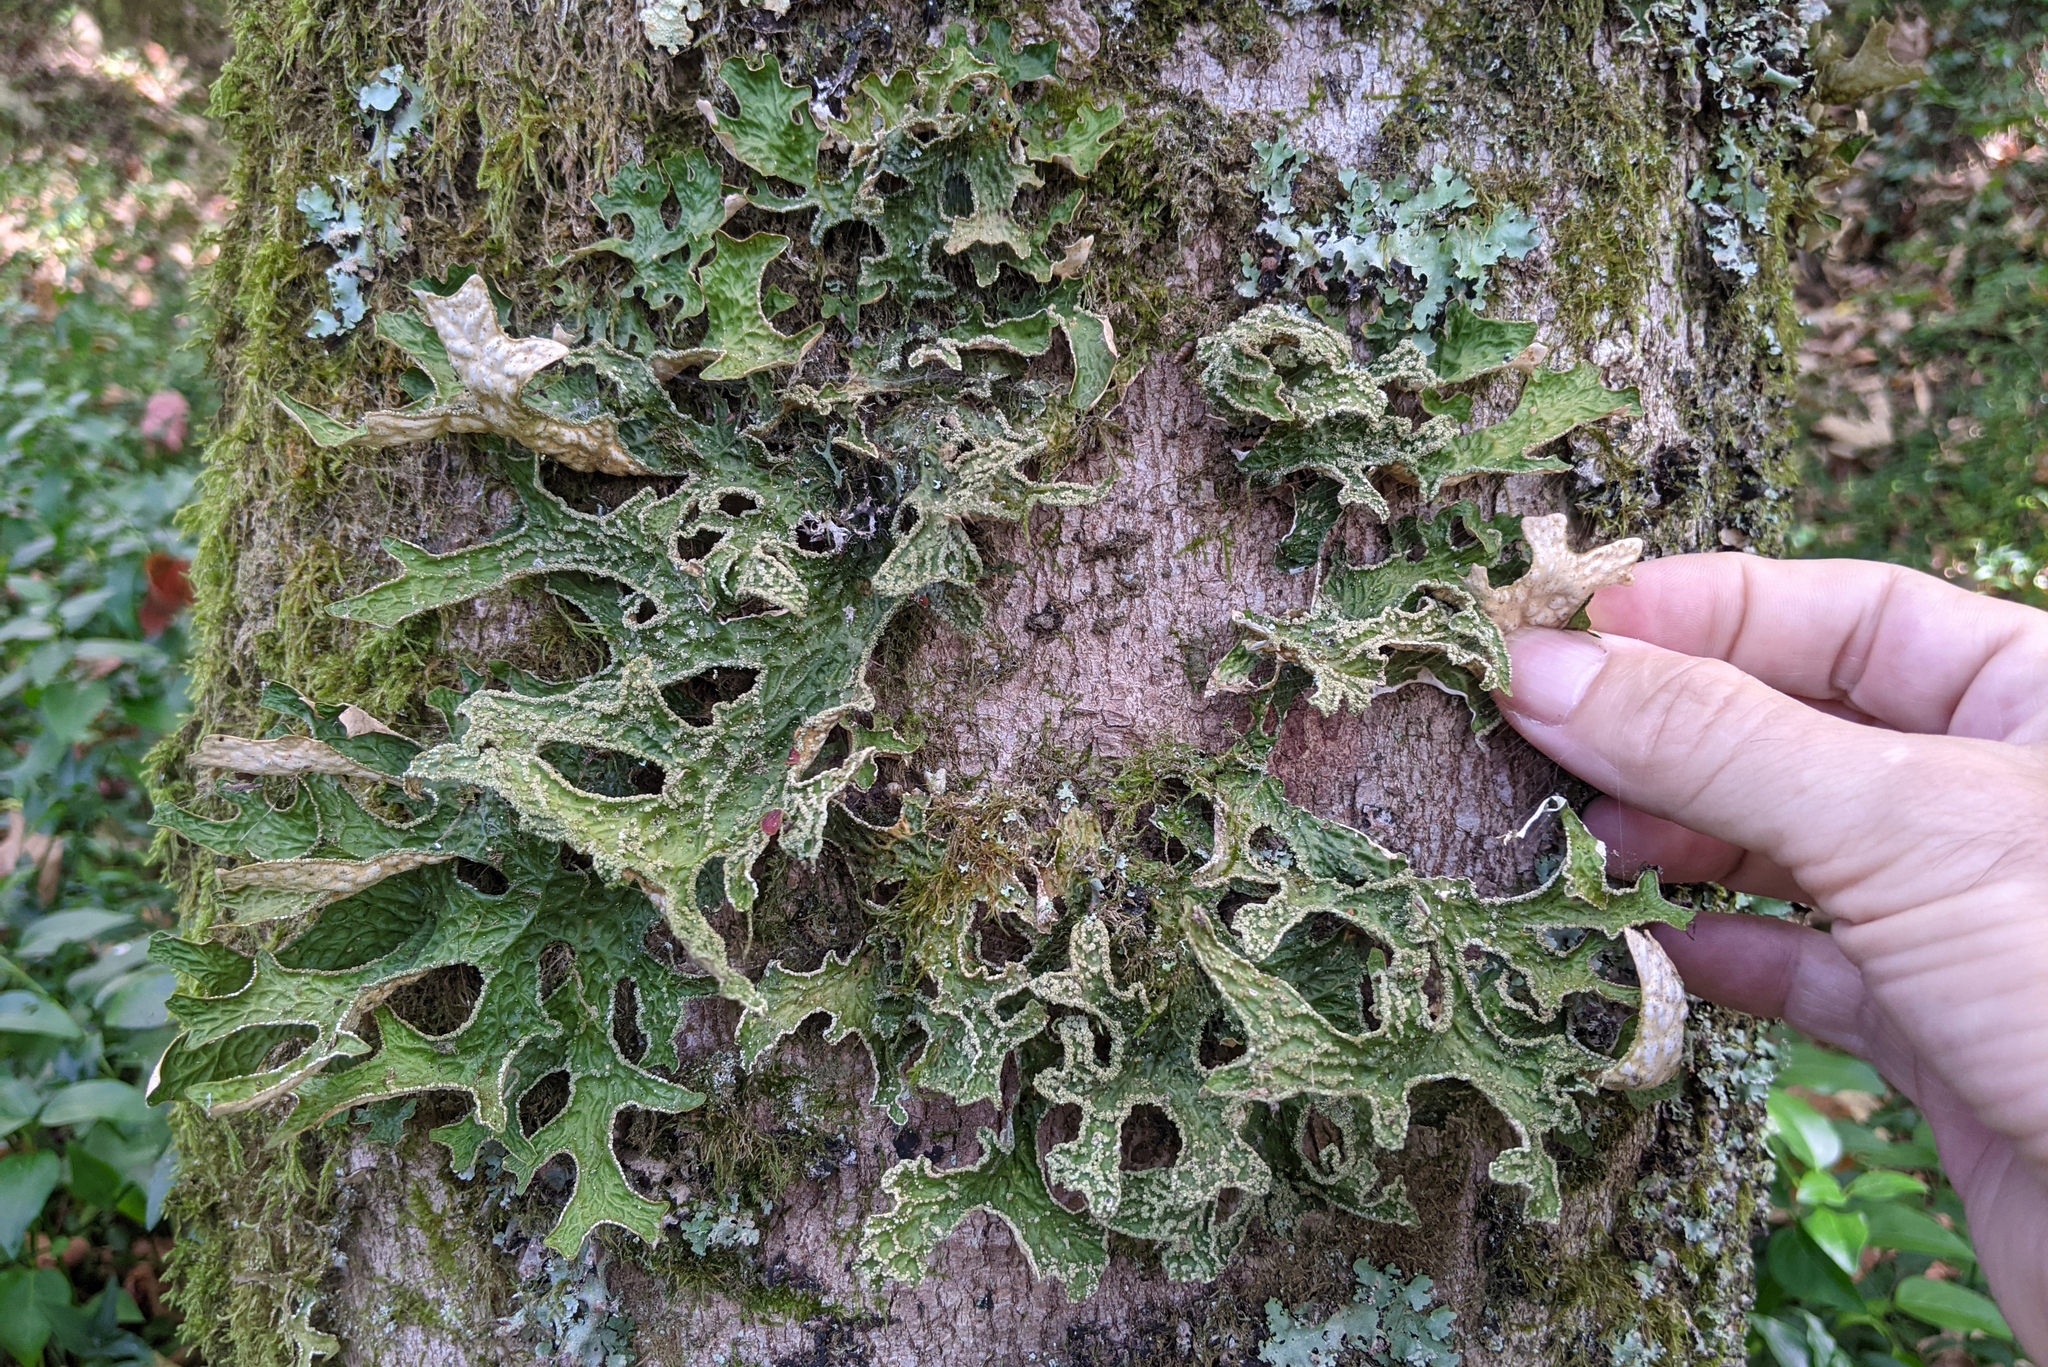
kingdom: Fungi
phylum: Ascomycota
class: Lecanoromycetes
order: Peltigerales
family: Lobariaceae
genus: Lobaria
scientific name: Lobaria pulmonaria
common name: Lungwort
